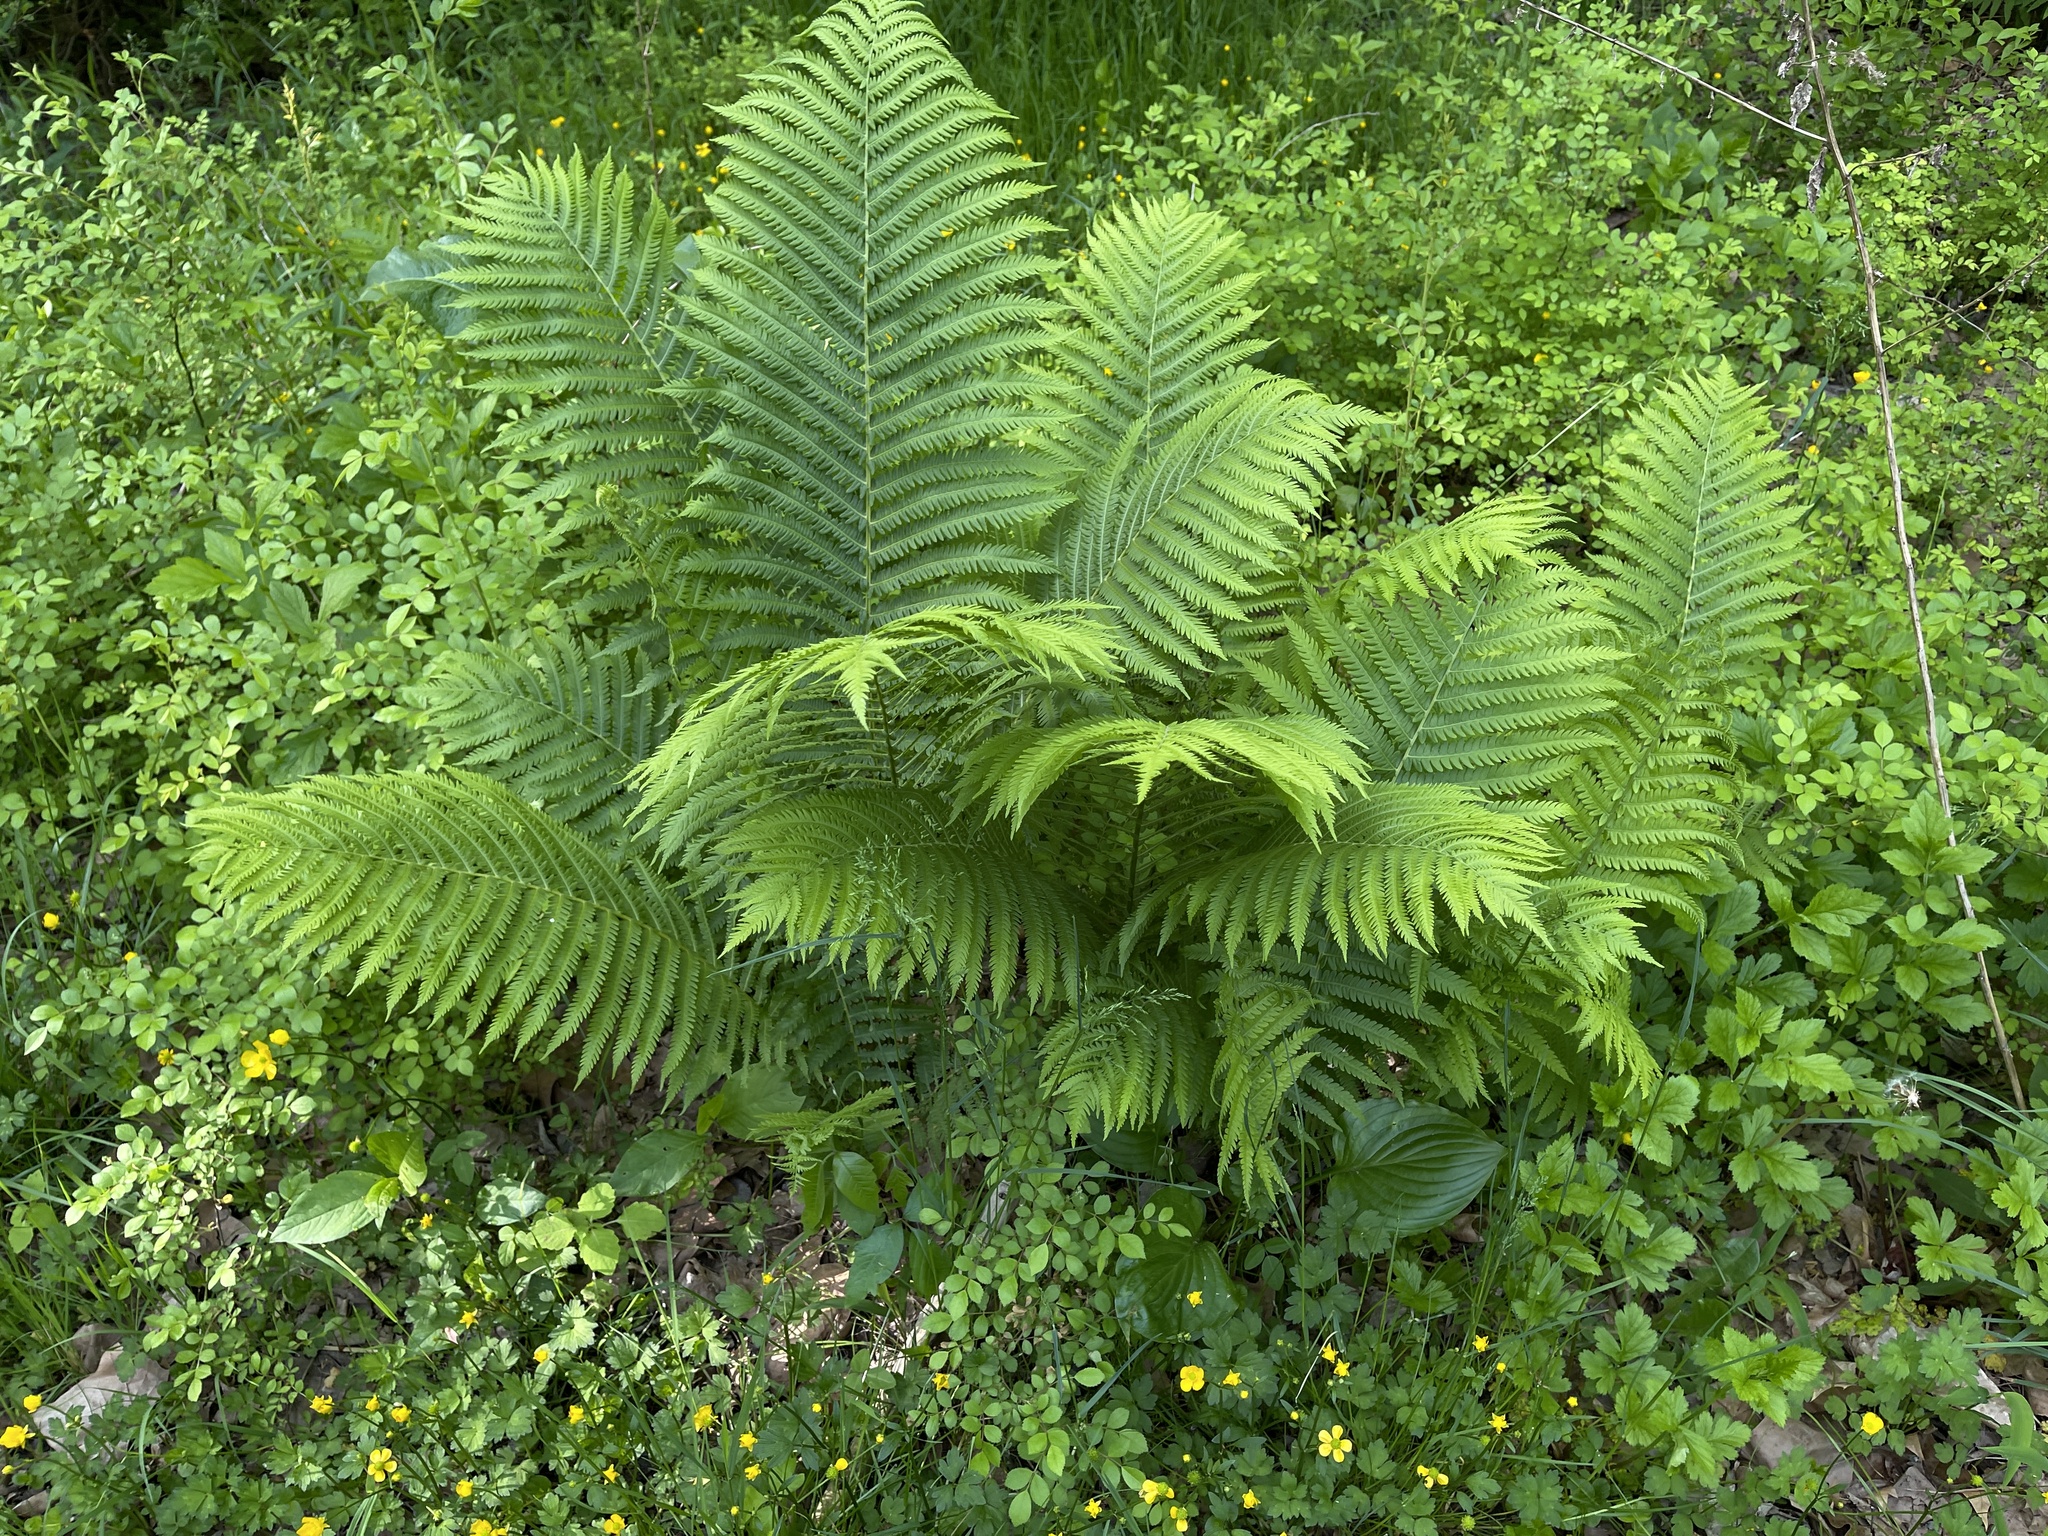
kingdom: Plantae
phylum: Tracheophyta
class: Polypodiopsida
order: Polypodiales
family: Onocleaceae
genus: Matteuccia
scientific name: Matteuccia struthiopteris
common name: Ostrich fern
